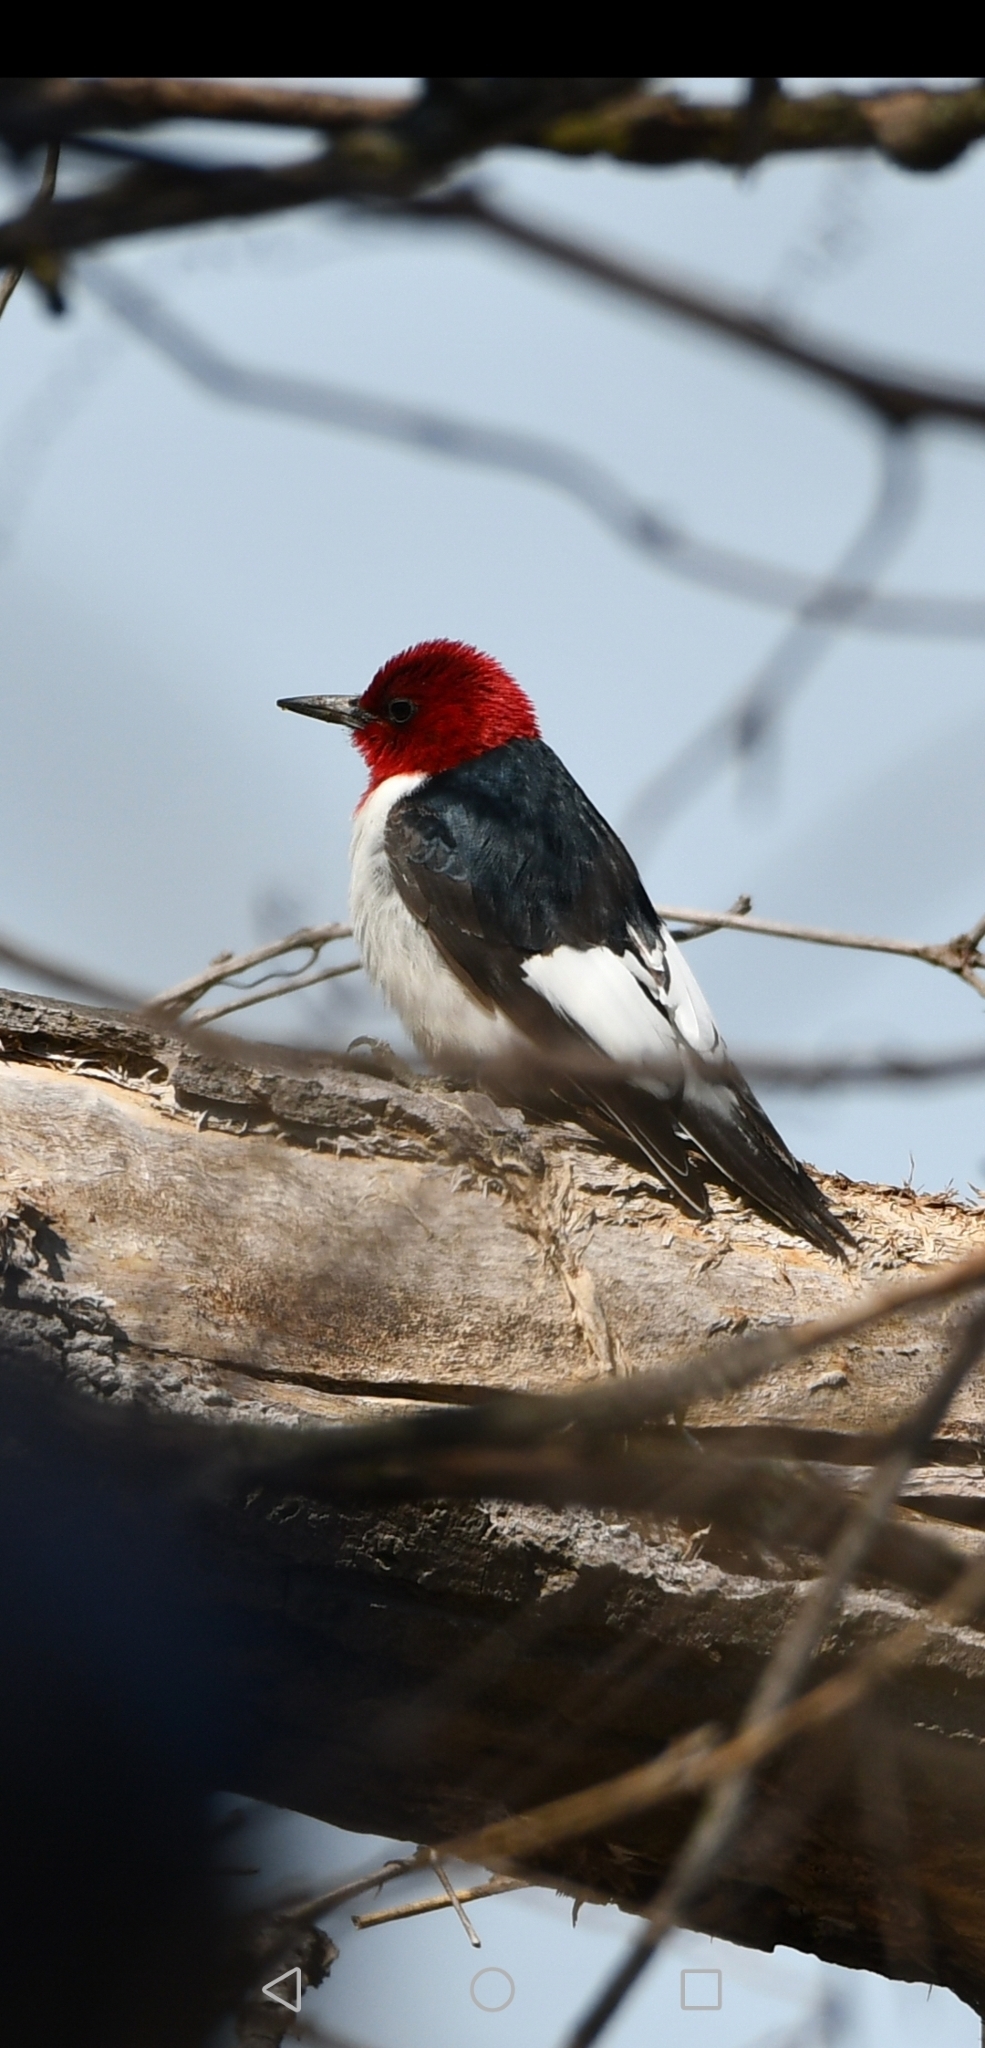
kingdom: Animalia
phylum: Chordata
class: Aves
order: Piciformes
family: Picidae
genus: Melanerpes
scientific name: Melanerpes erythrocephalus
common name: Red-headed woodpecker
